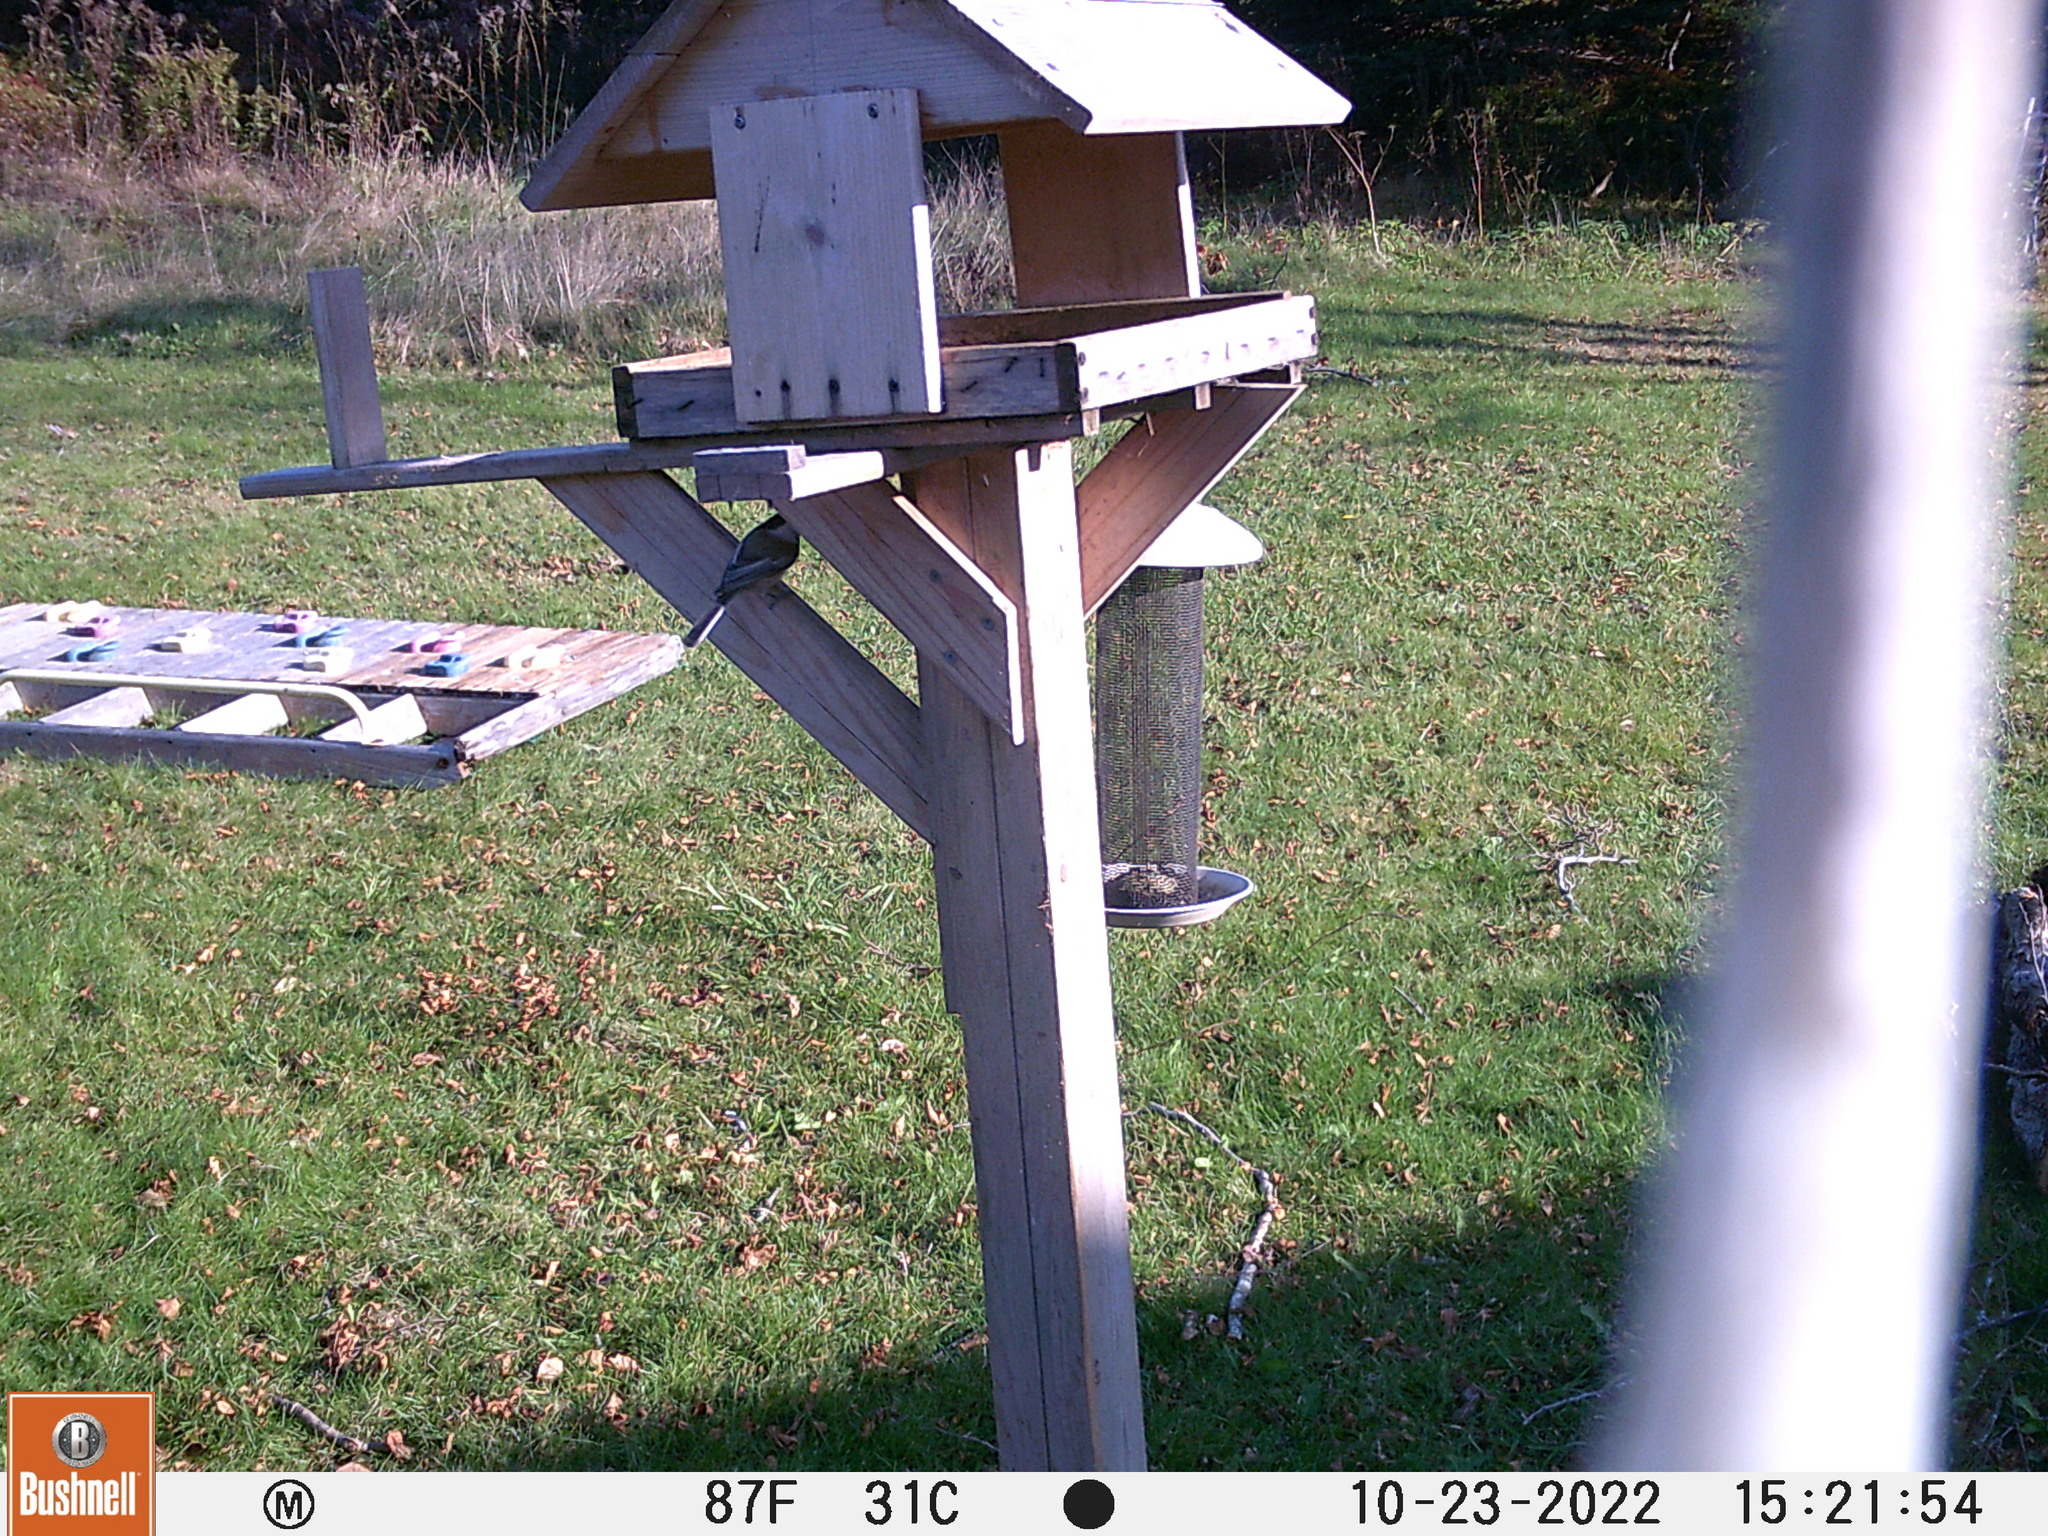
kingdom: Animalia
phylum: Chordata
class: Aves
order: Passeriformes
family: Paridae
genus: Poecile
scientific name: Poecile atricapillus
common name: Black-capped chickadee
